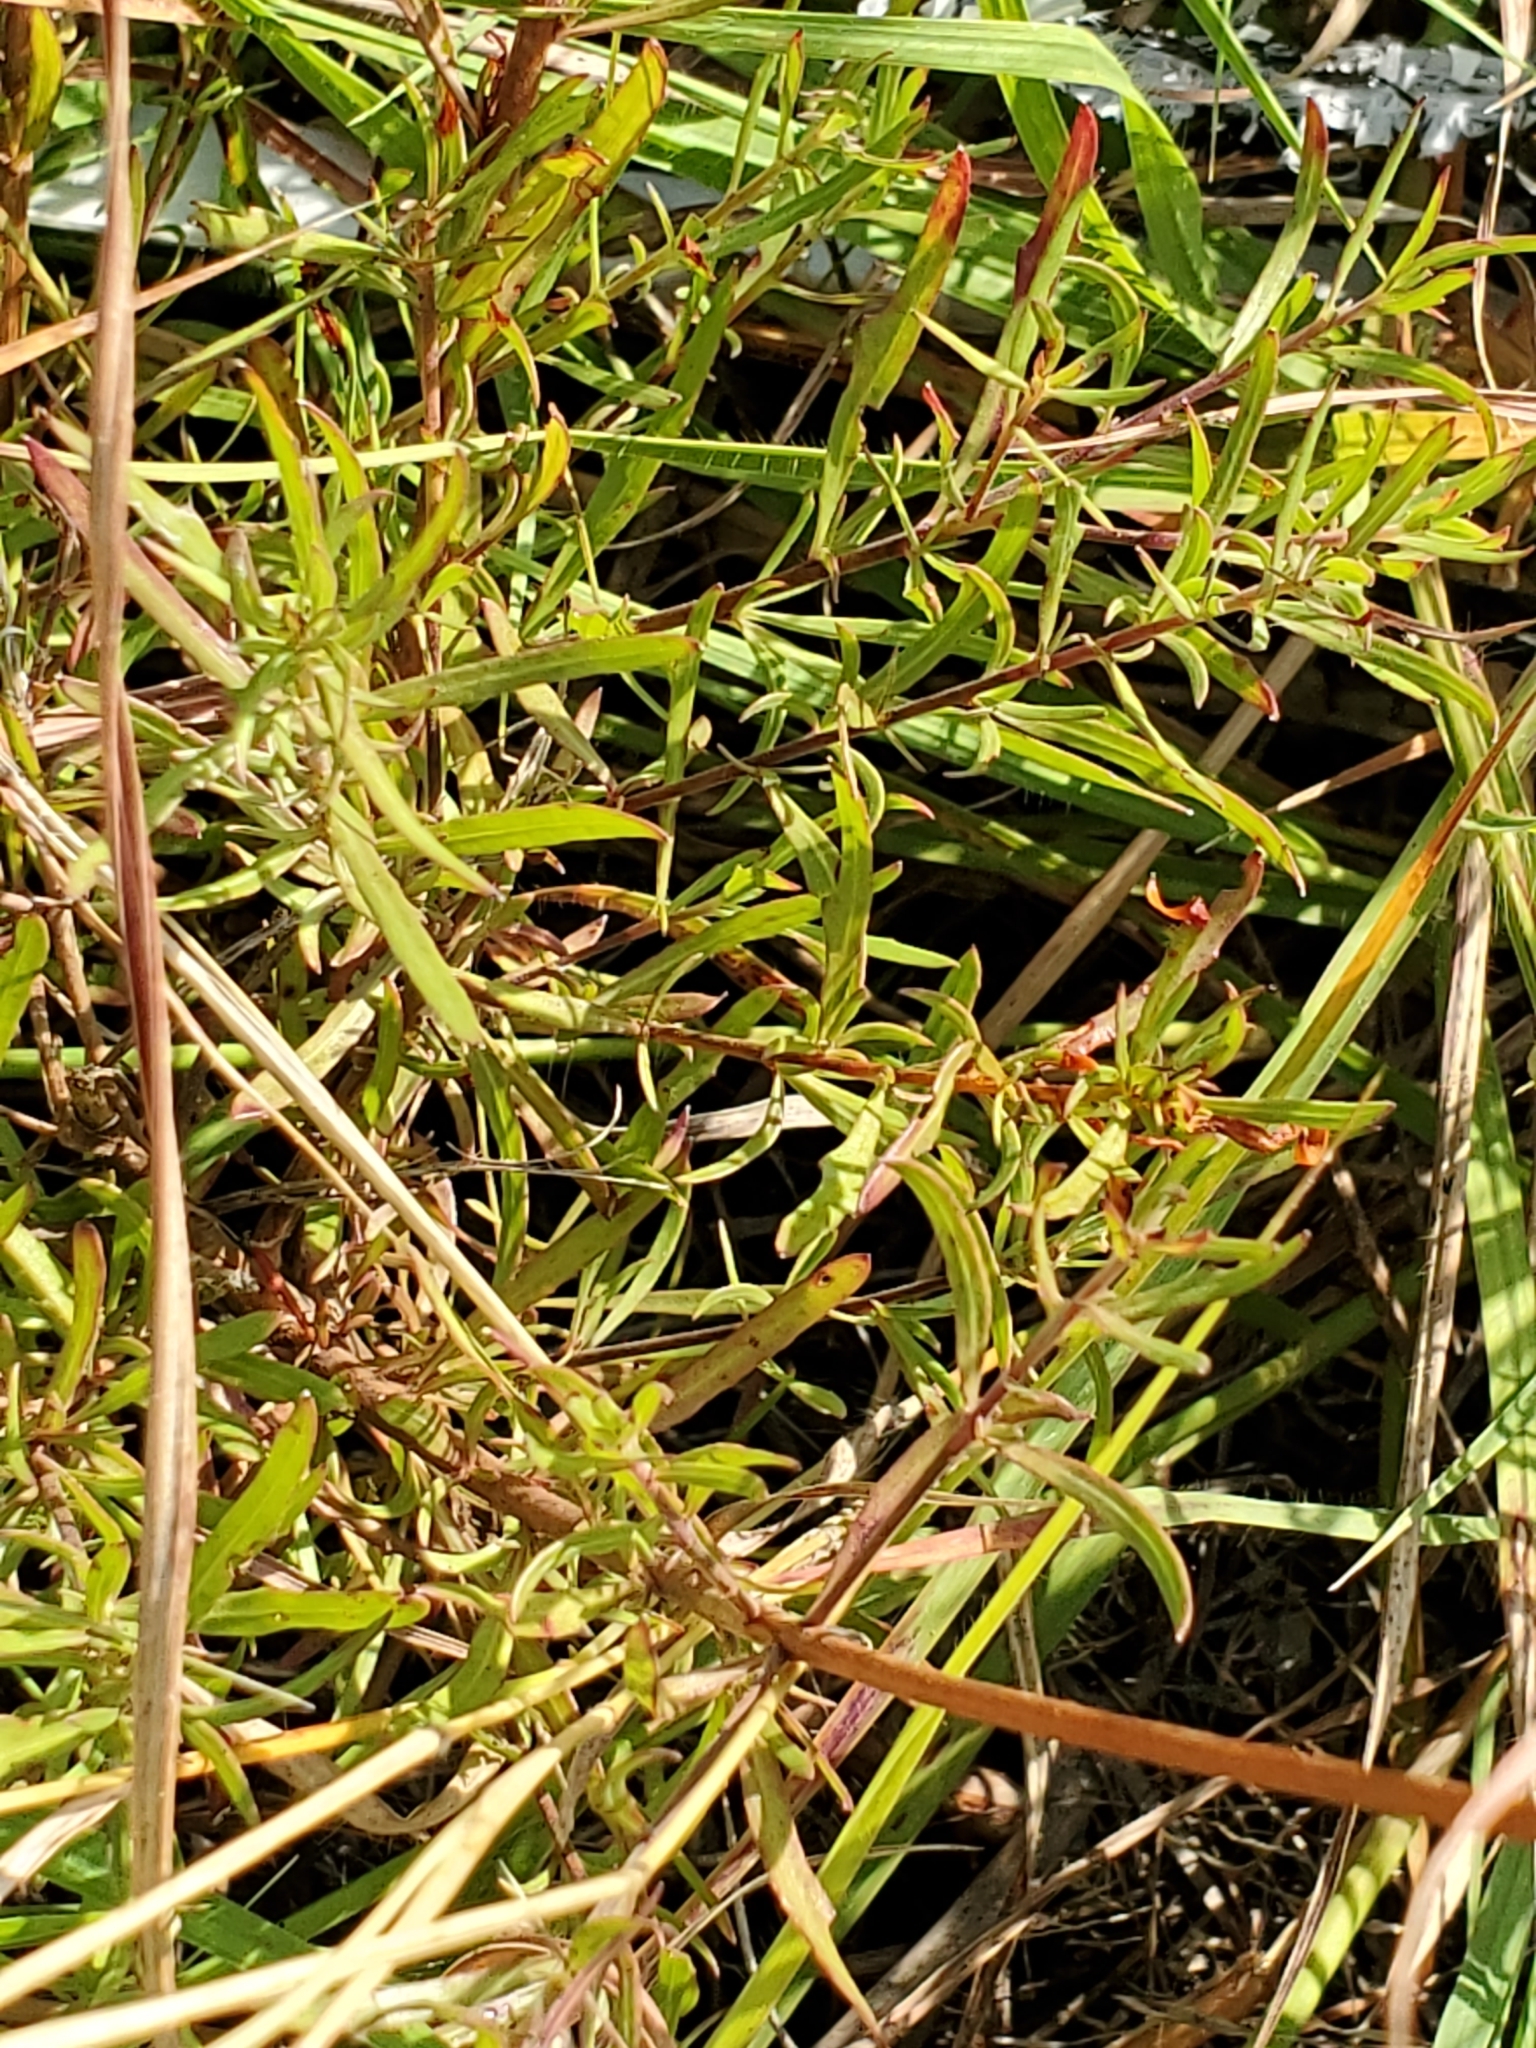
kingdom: Plantae
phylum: Tracheophyta
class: Magnoliopsida
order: Myrtales
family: Onagraceae
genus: Oenothera
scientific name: Oenothera suffulta
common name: Kisses
